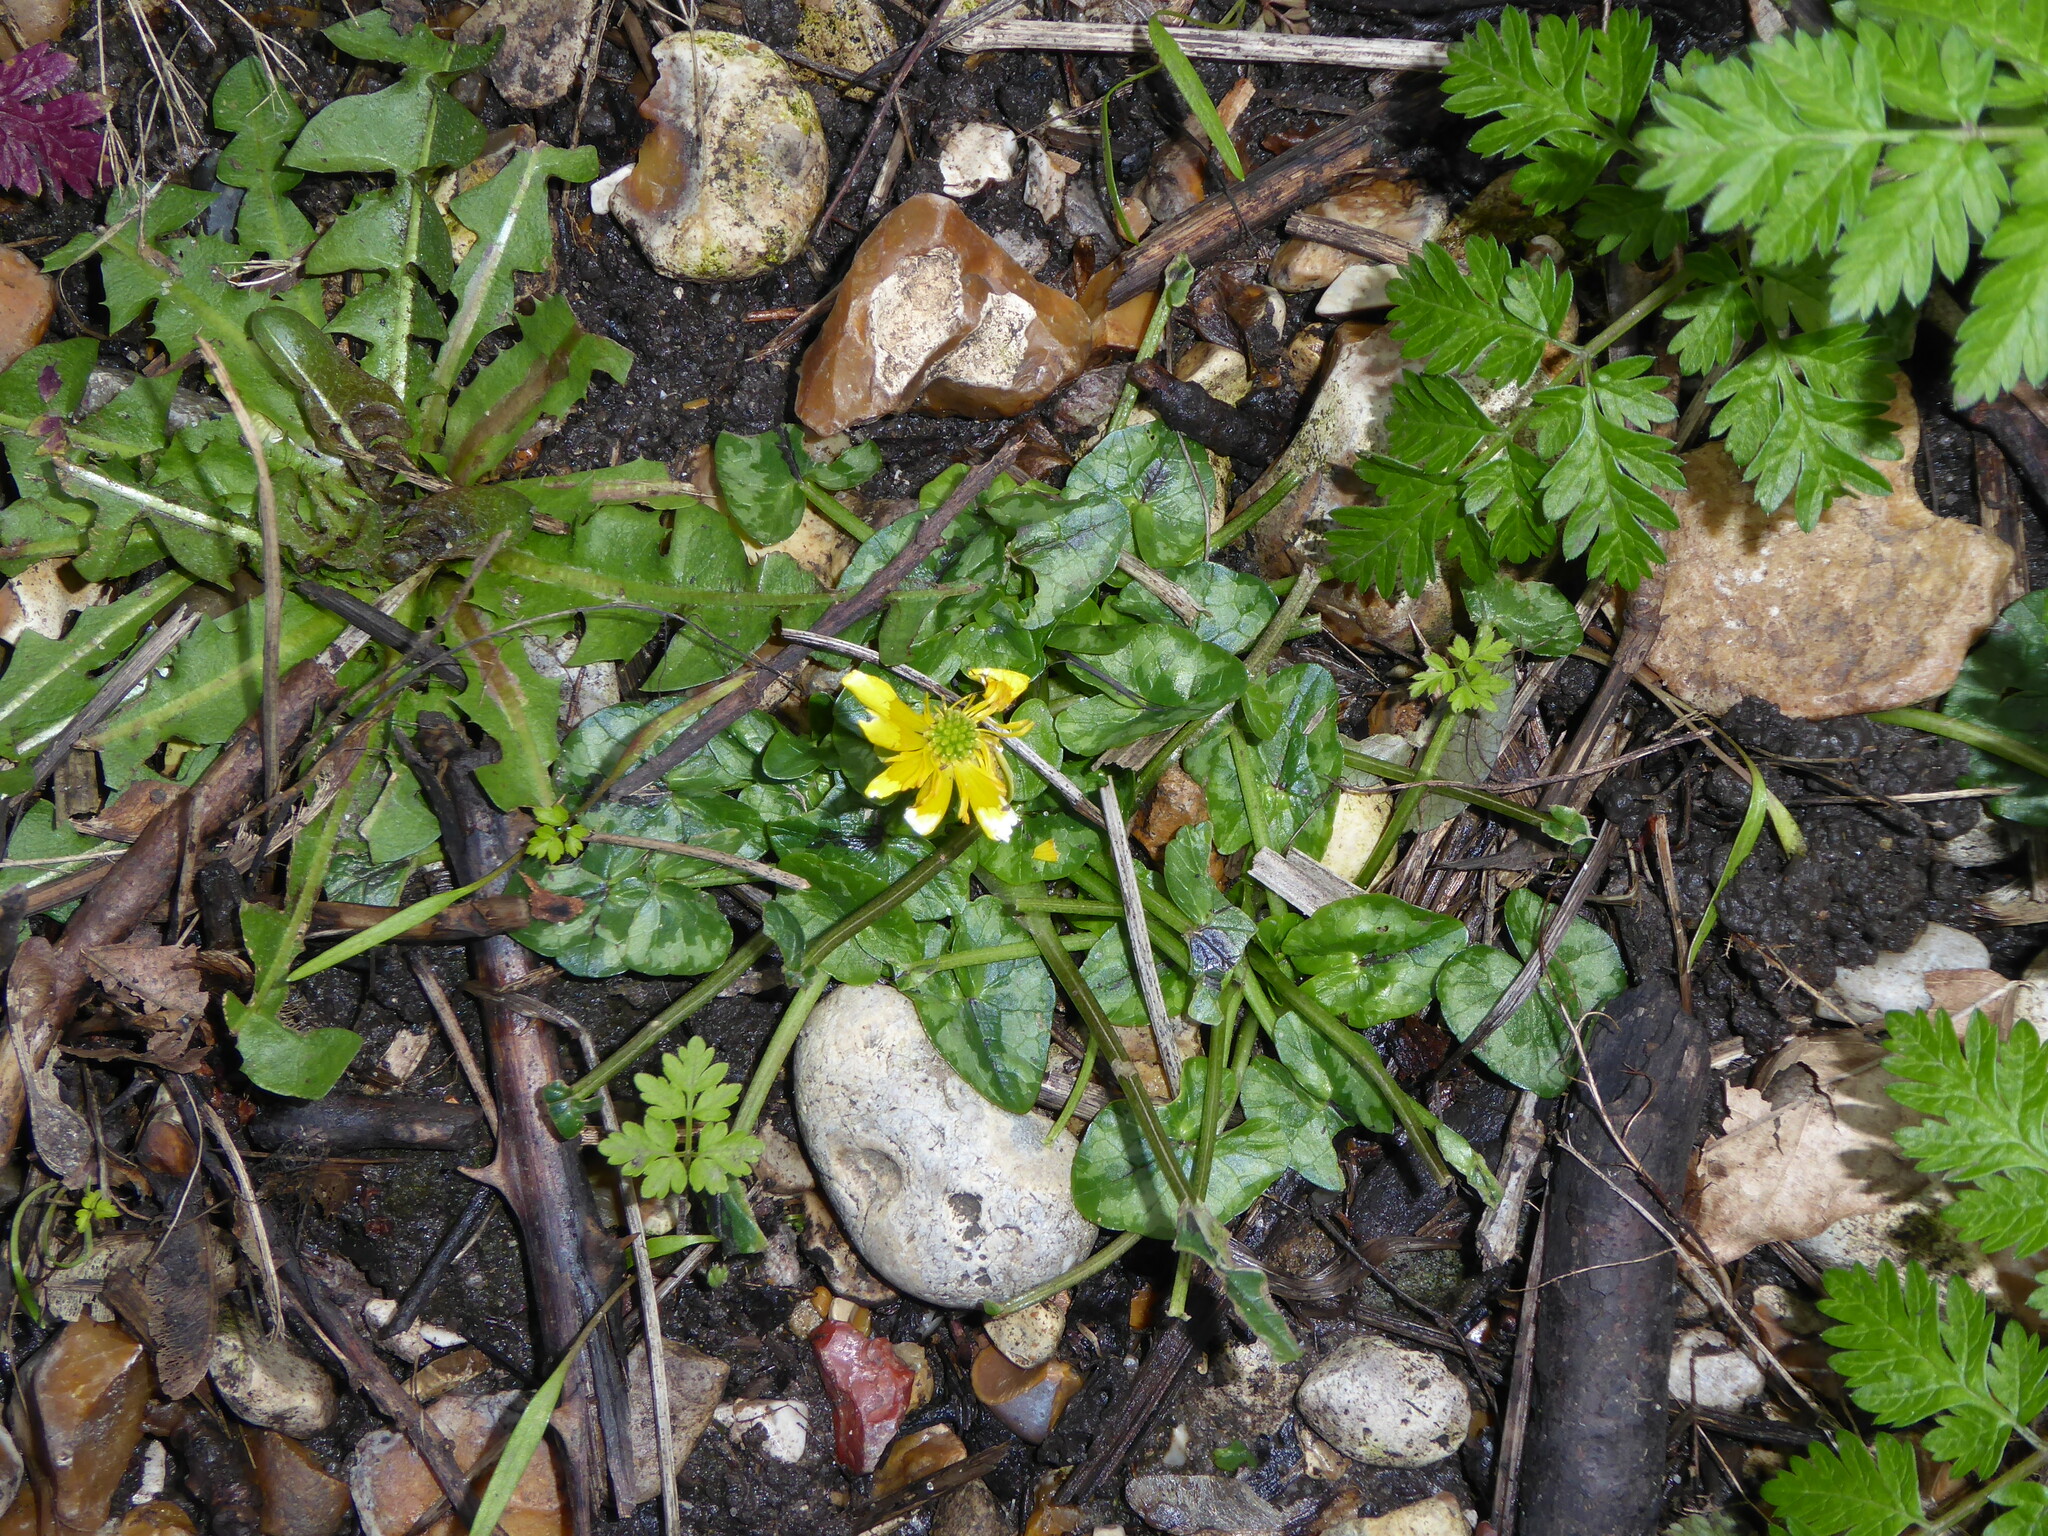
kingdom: Plantae
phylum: Tracheophyta
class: Magnoliopsida
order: Ranunculales
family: Ranunculaceae
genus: Ficaria
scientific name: Ficaria verna
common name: Lesser celandine
